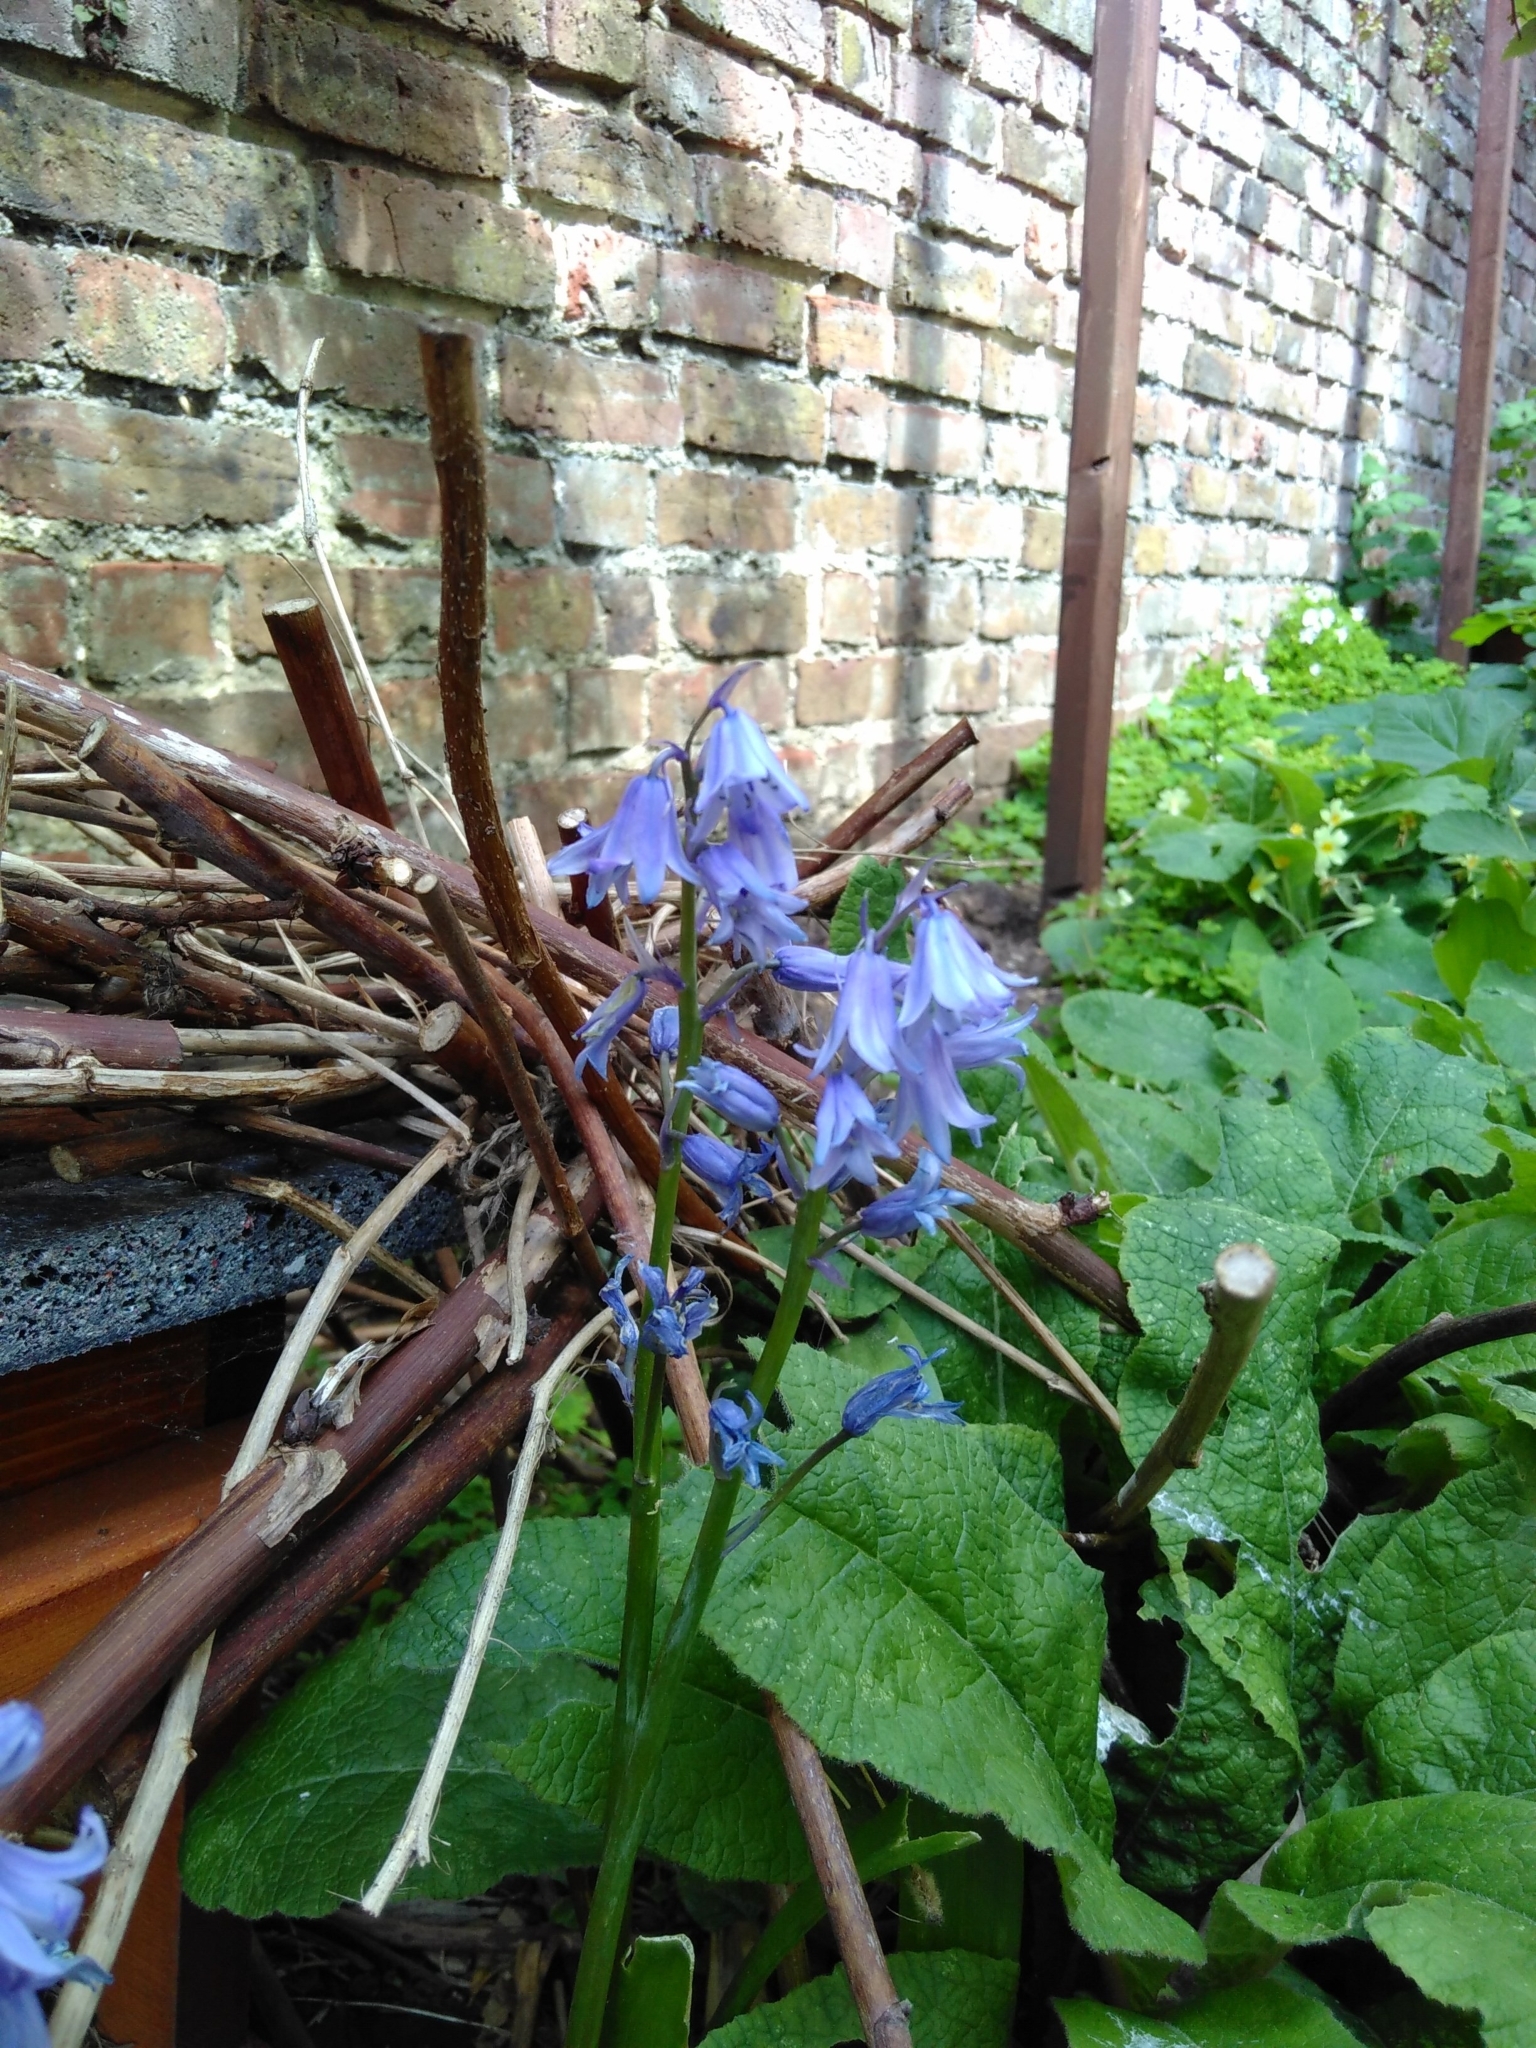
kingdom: Plantae
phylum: Tracheophyta
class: Liliopsida
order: Asparagales
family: Asparagaceae
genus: Hyacinthoides
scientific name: Hyacinthoides hispanica
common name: Spanish bluebell
